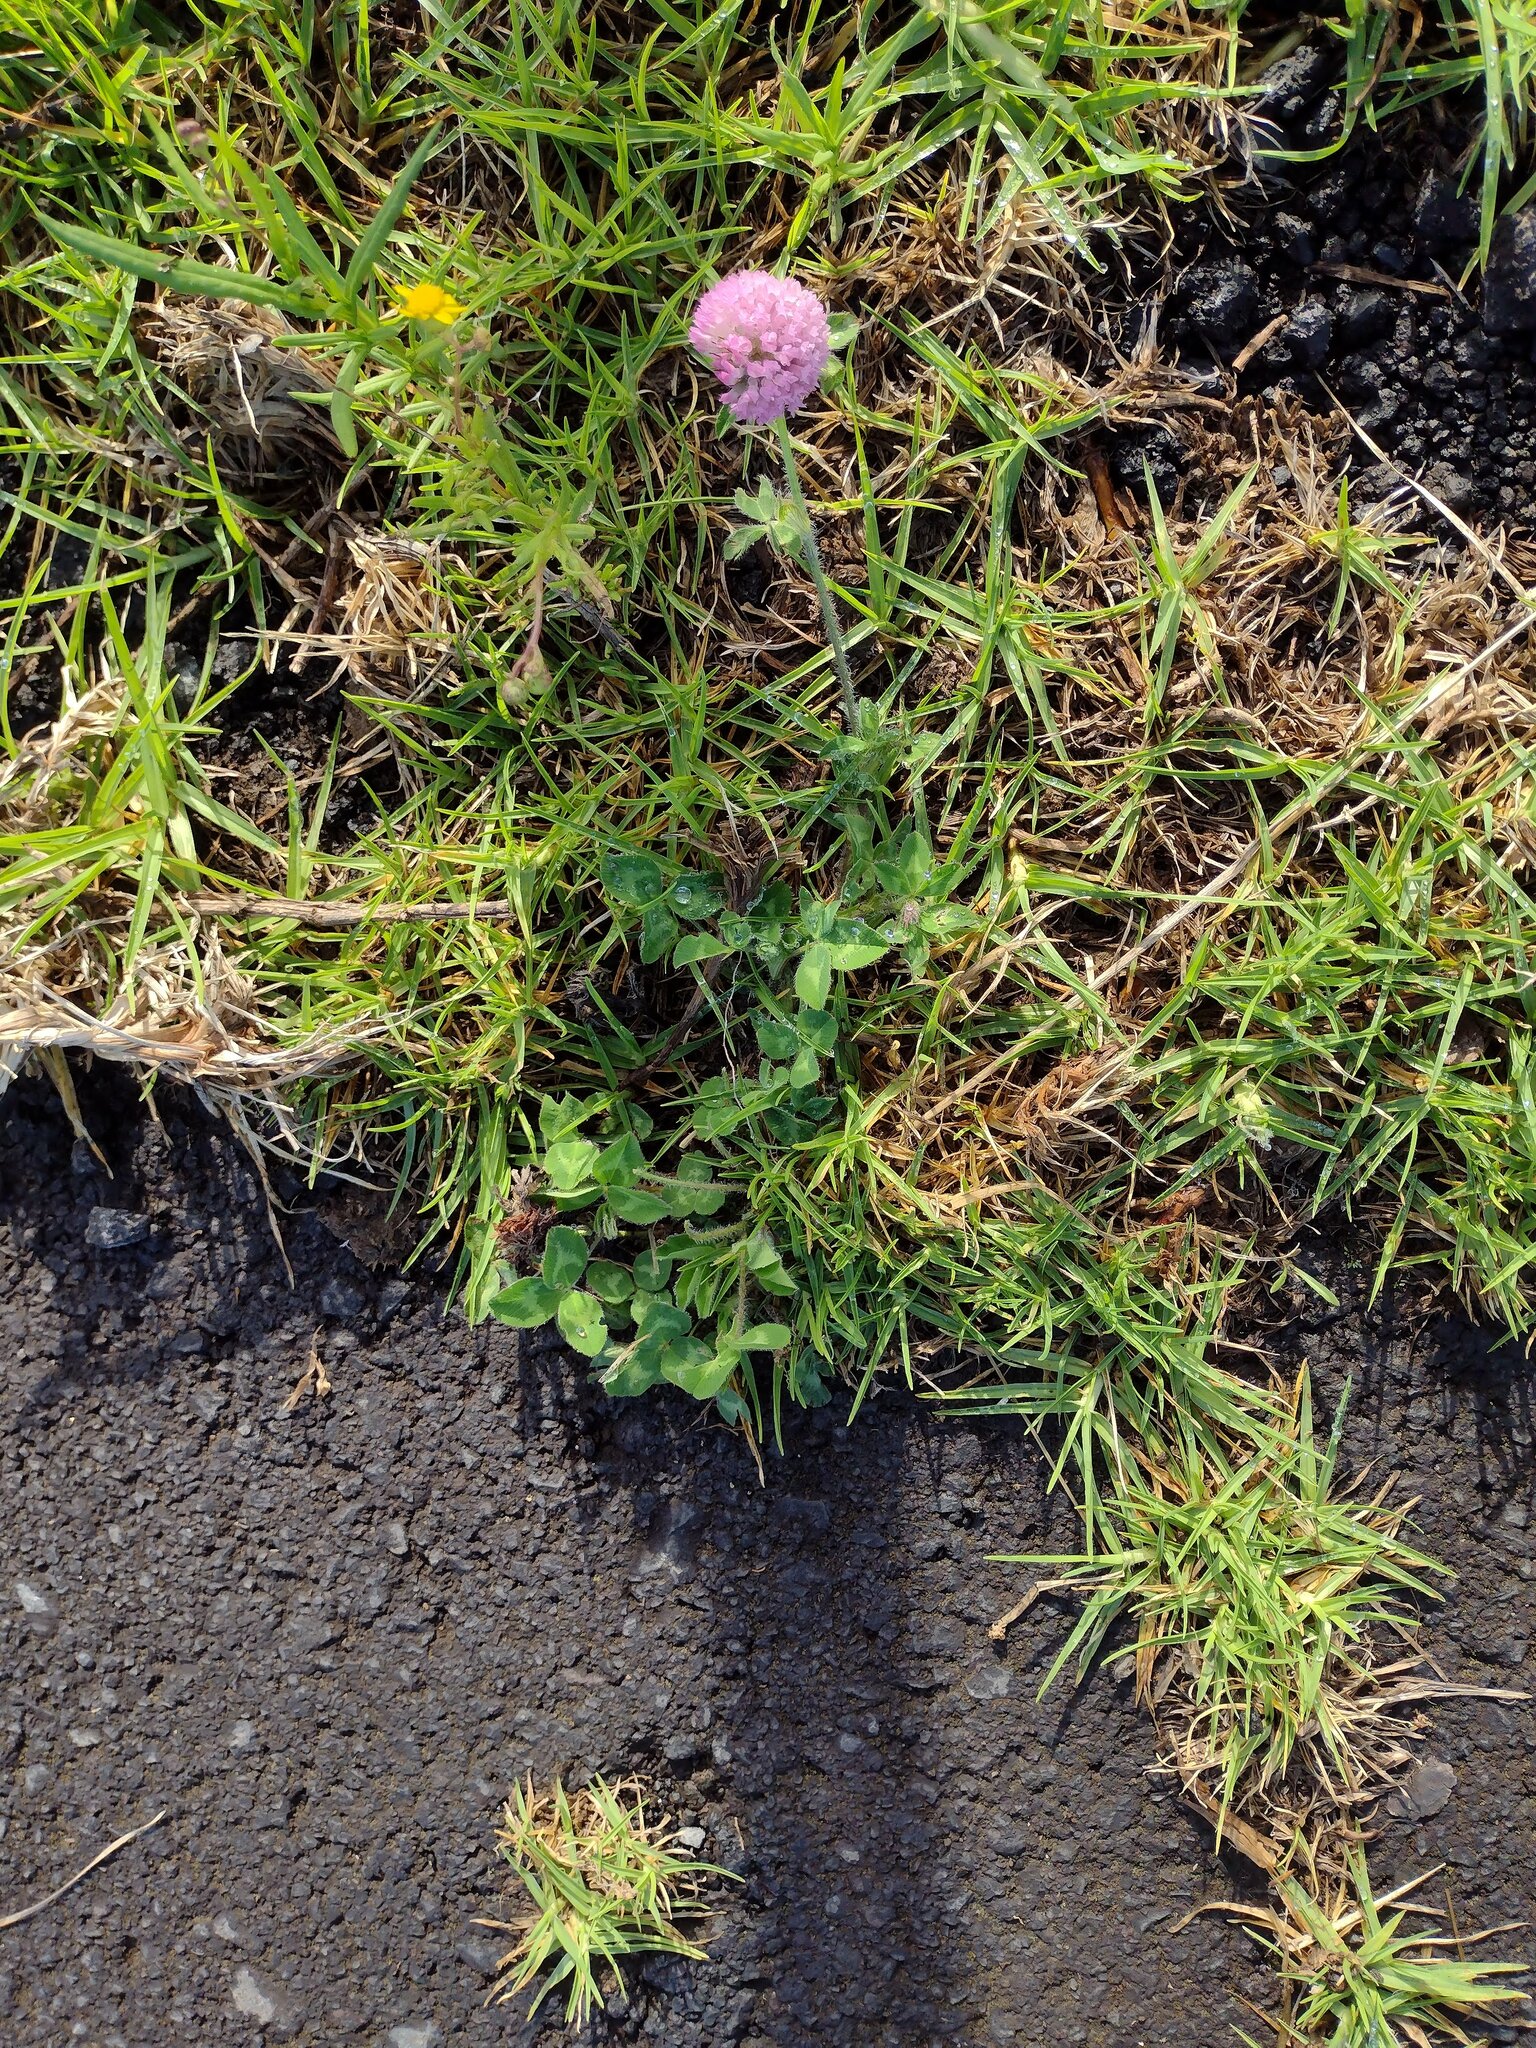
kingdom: Plantae
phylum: Tracheophyta
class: Magnoliopsida
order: Fabales
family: Fabaceae
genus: Trifolium
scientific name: Trifolium pratense
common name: Red clover
